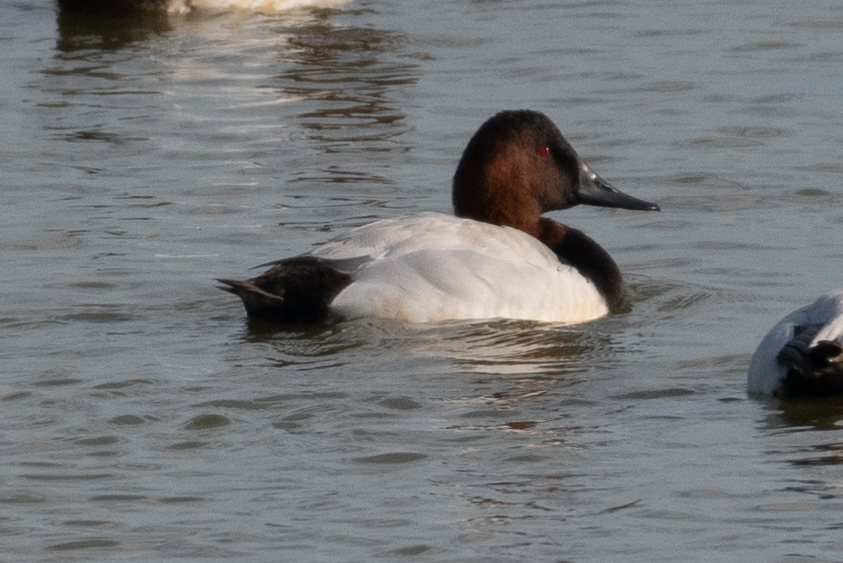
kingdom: Animalia
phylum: Chordata
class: Aves
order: Anseriformes
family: Anatidae
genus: Aythya
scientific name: Aythya valisineria
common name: Canvasback
